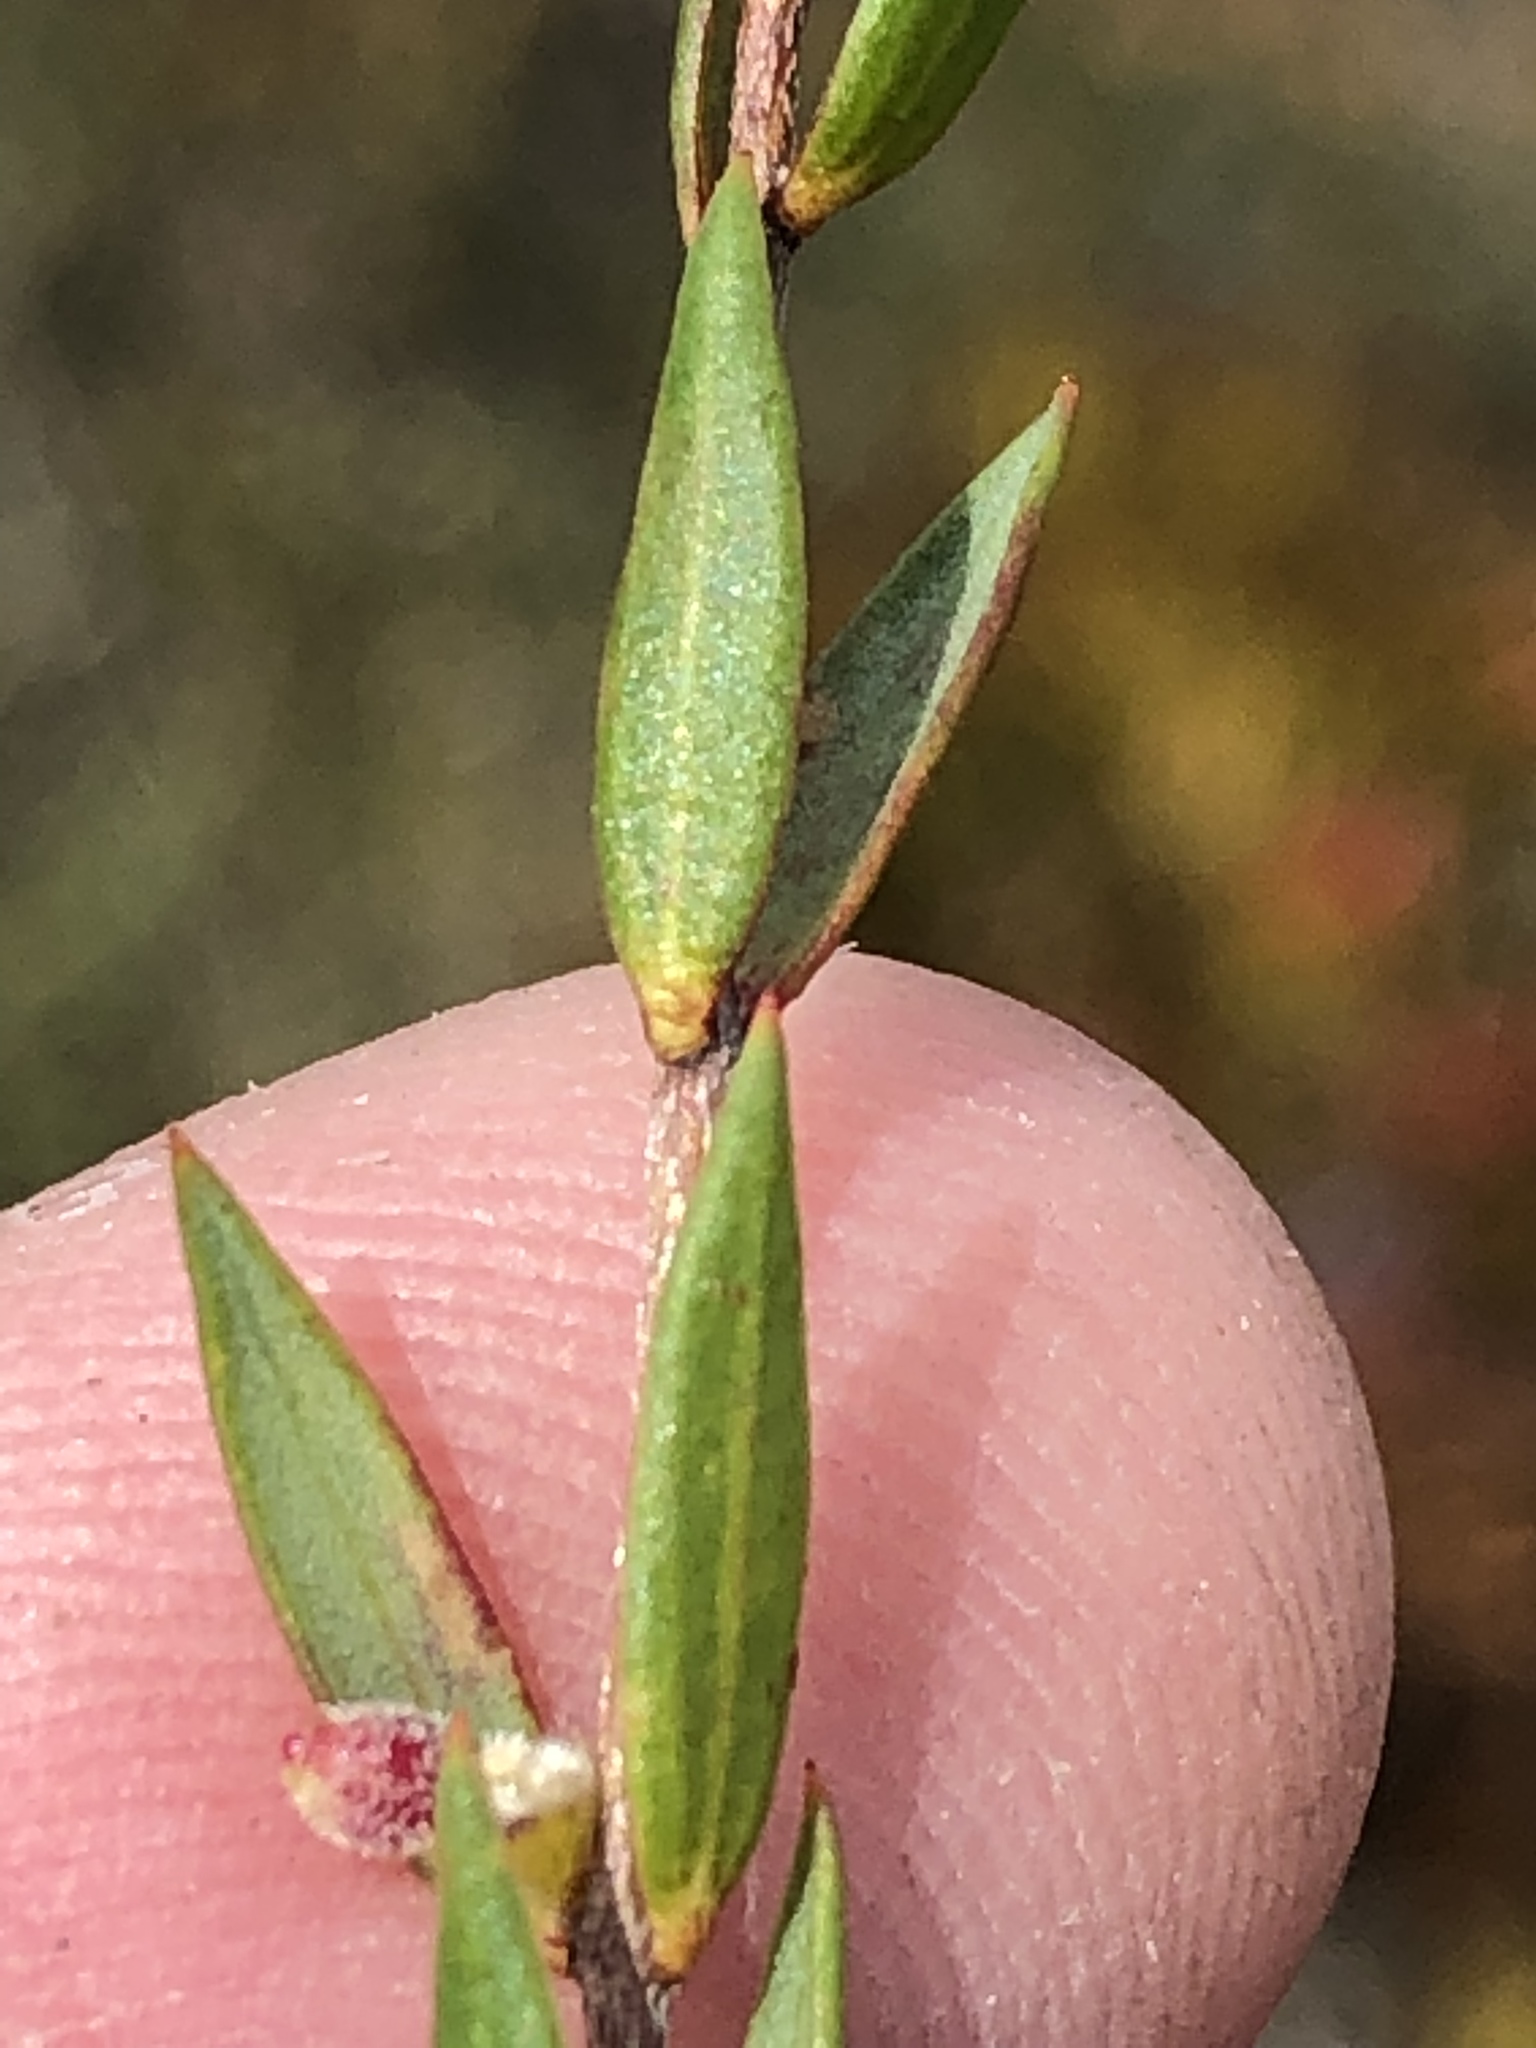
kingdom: Plantae
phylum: Tracheophyta
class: Magnoliopsida
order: Malvales
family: Thymelaeaceae
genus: Lachnaea
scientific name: Lachnaea burchellii
